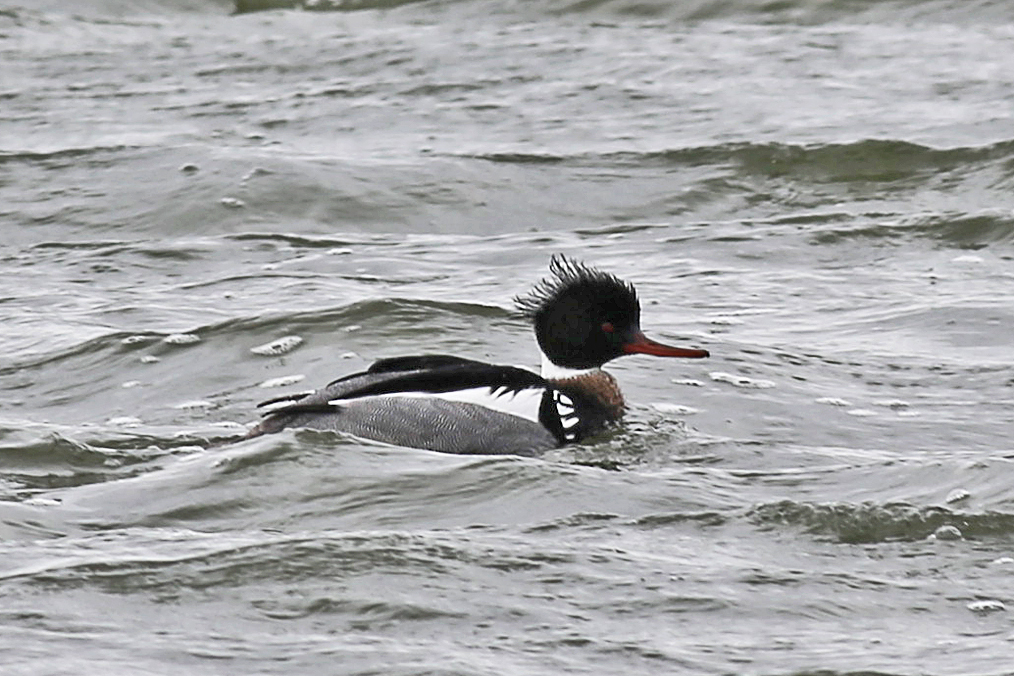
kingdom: Animalia
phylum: Chordata
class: Aves
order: Anseriformes
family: Anatidae
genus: Mergus
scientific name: Mergus serrator
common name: Red-breasted merganser
